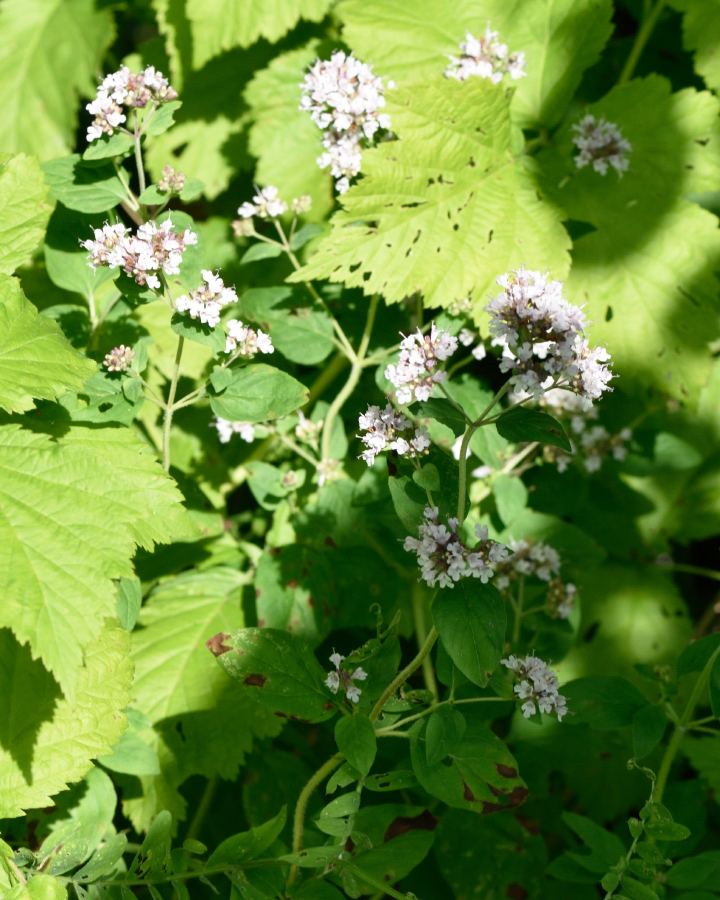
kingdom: Plantae
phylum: Tracheophyta
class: Magnoliopsida
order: Lamiales
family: Lamiaceae
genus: Origanum
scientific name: Origanum vulgare
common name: Wild marjoram
